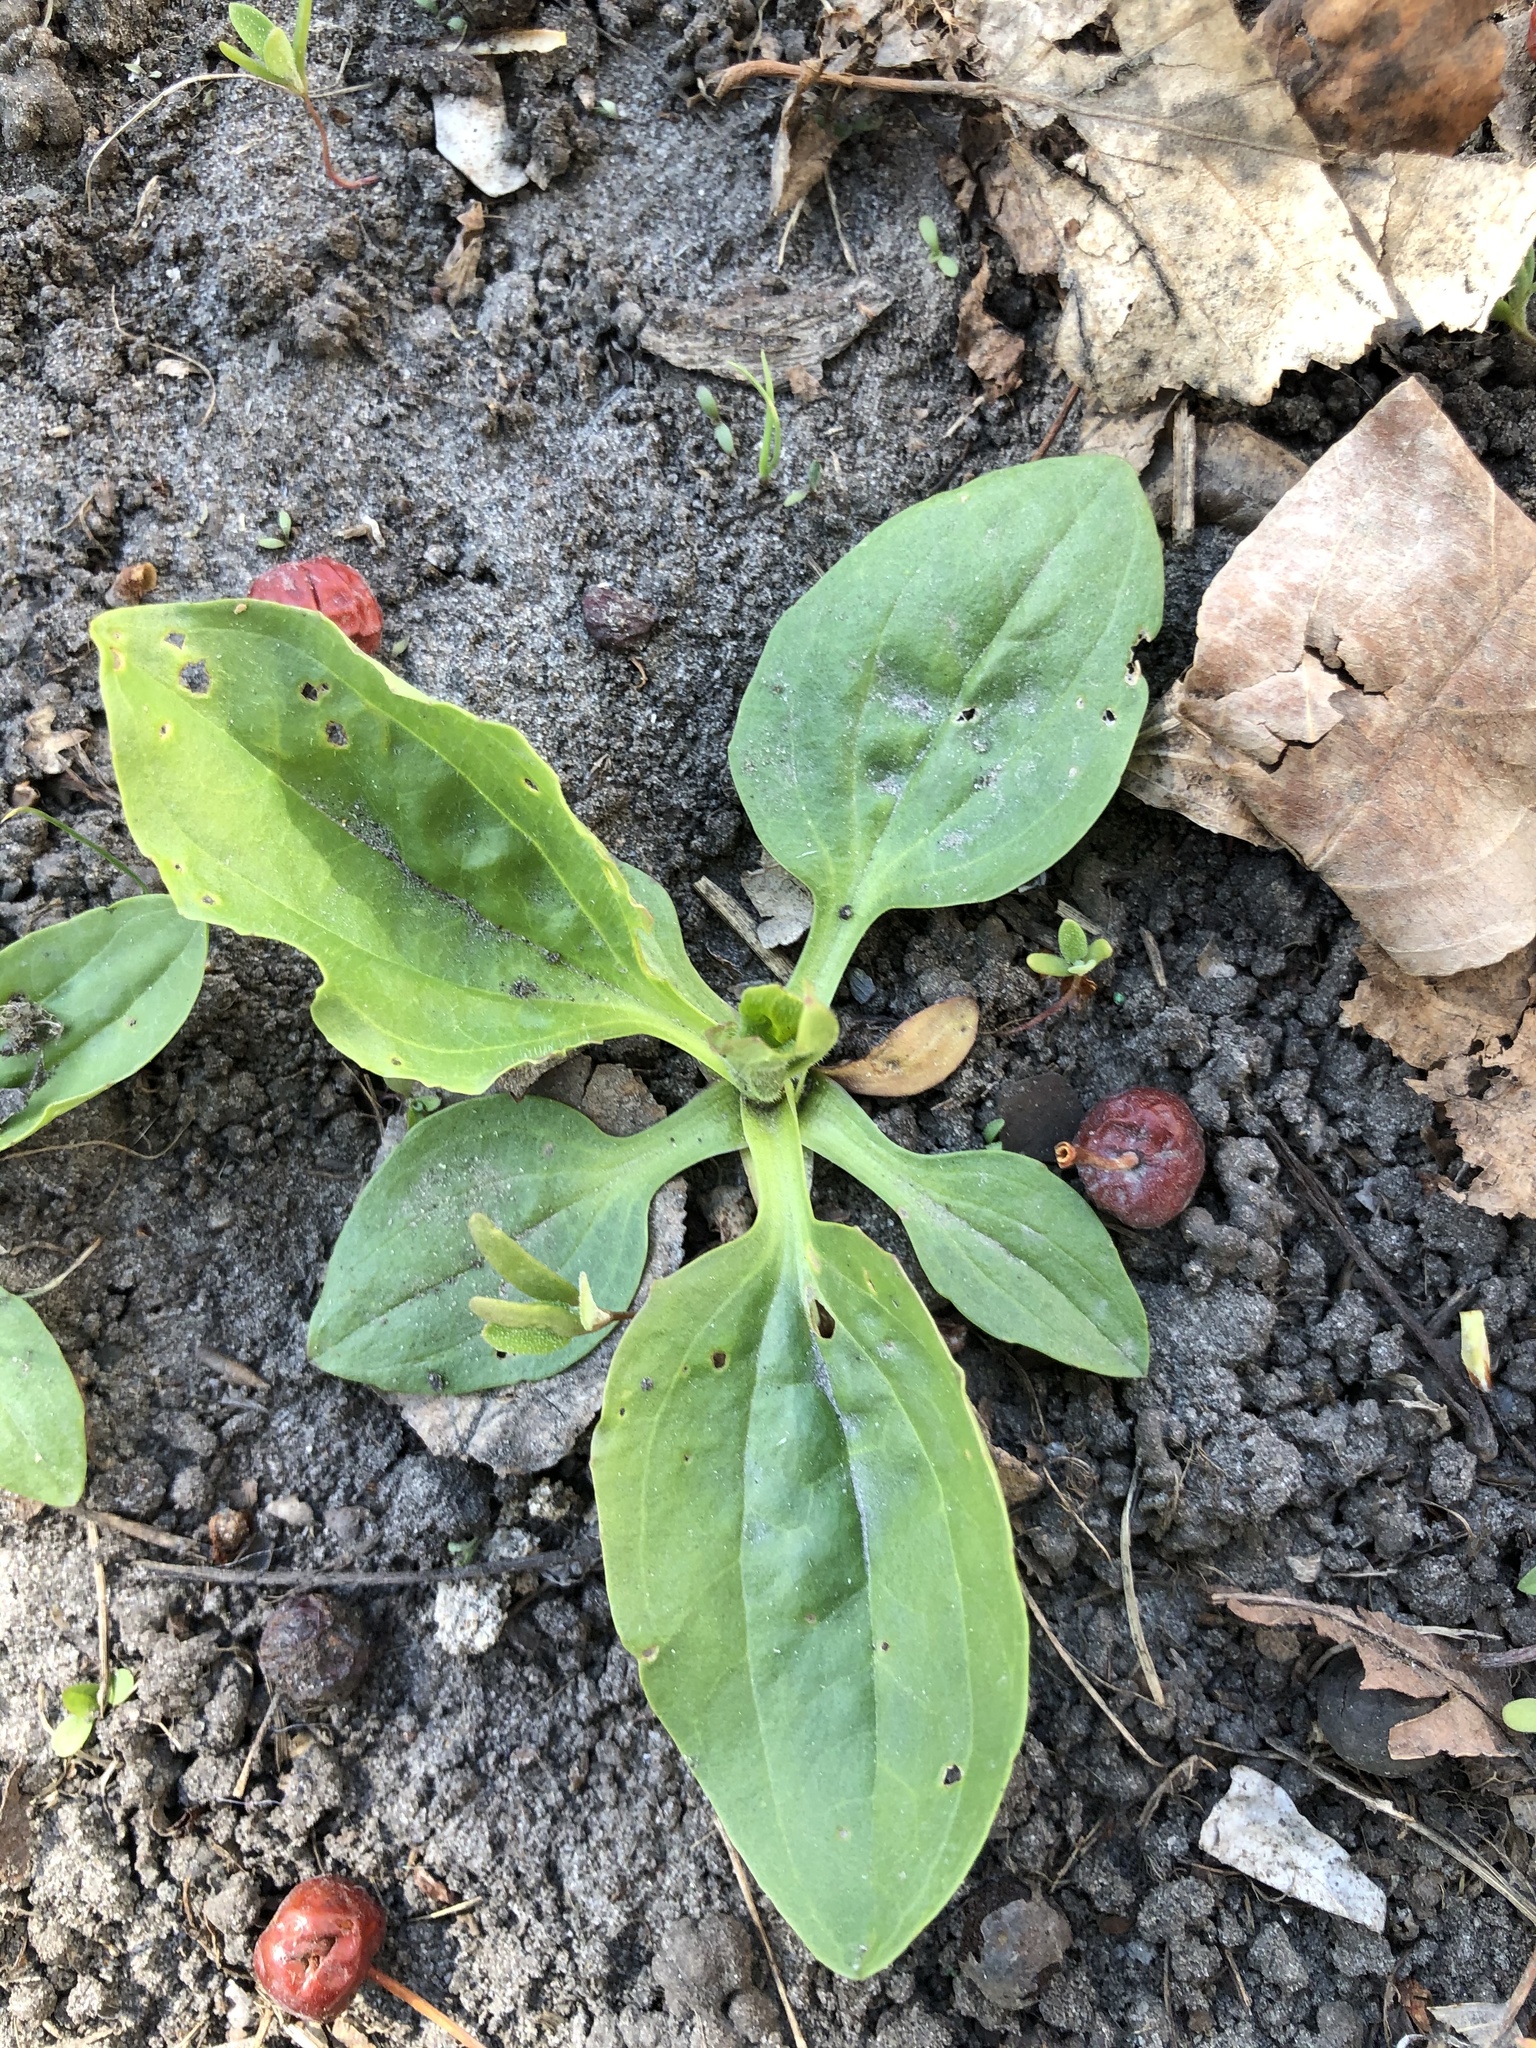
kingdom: Plantae
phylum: Tracheophyta
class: Magnoliopsida
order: Lamiales
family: Plantaginaceae
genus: Plantago
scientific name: Plantago major
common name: Common plantain
